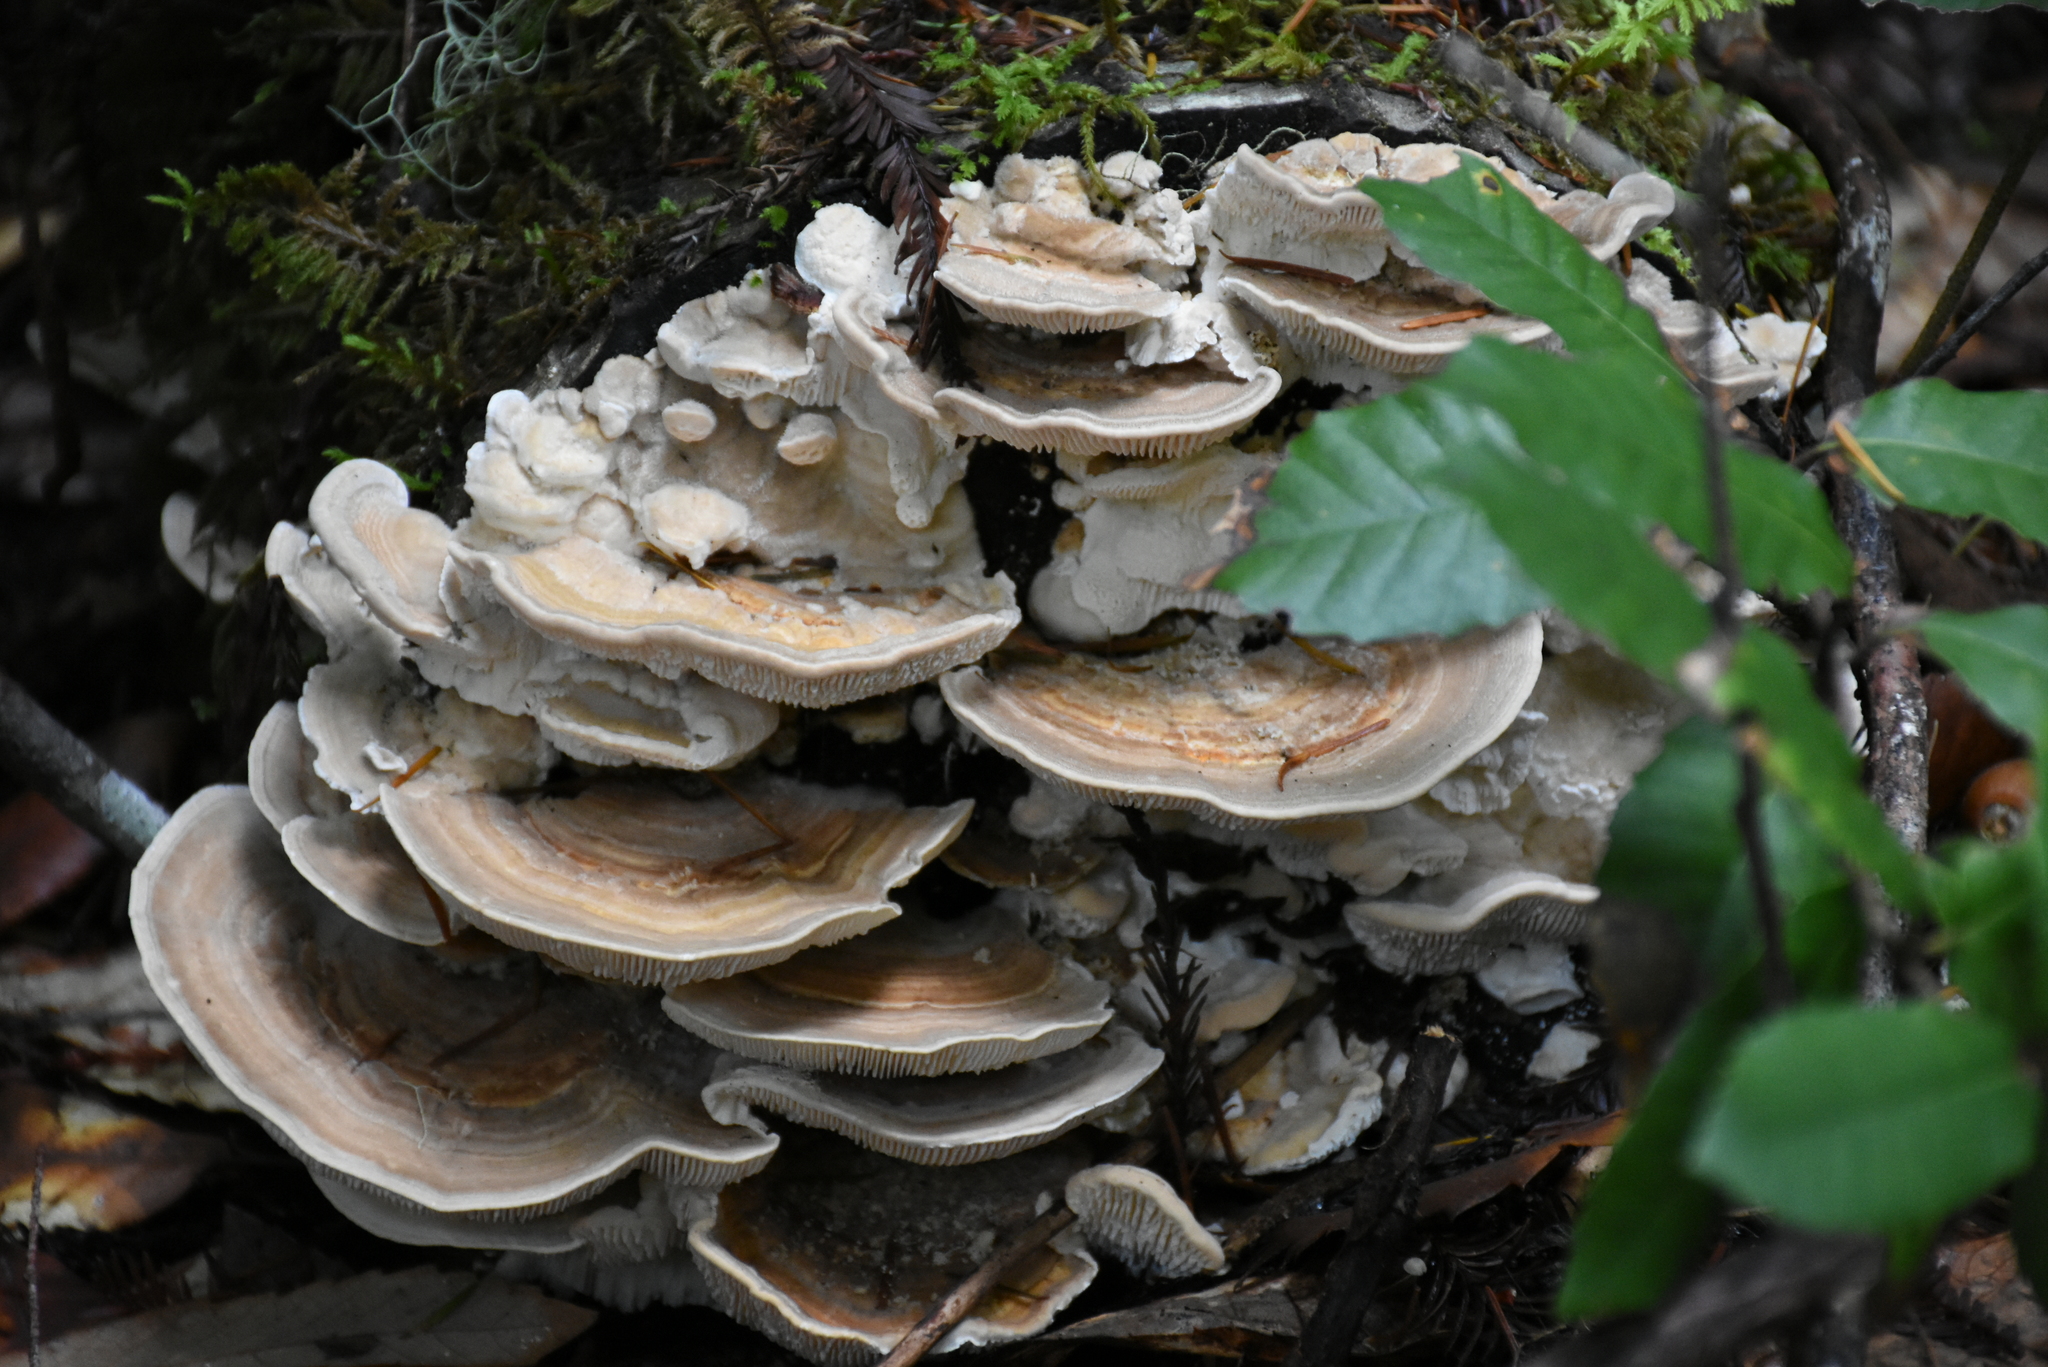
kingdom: Fungi
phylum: Basidiomycota
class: Agaricomycetes
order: Polyporales
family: Polyporaceae
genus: Lenzites
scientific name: Lenzites betulinus
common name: Birch mazegill
